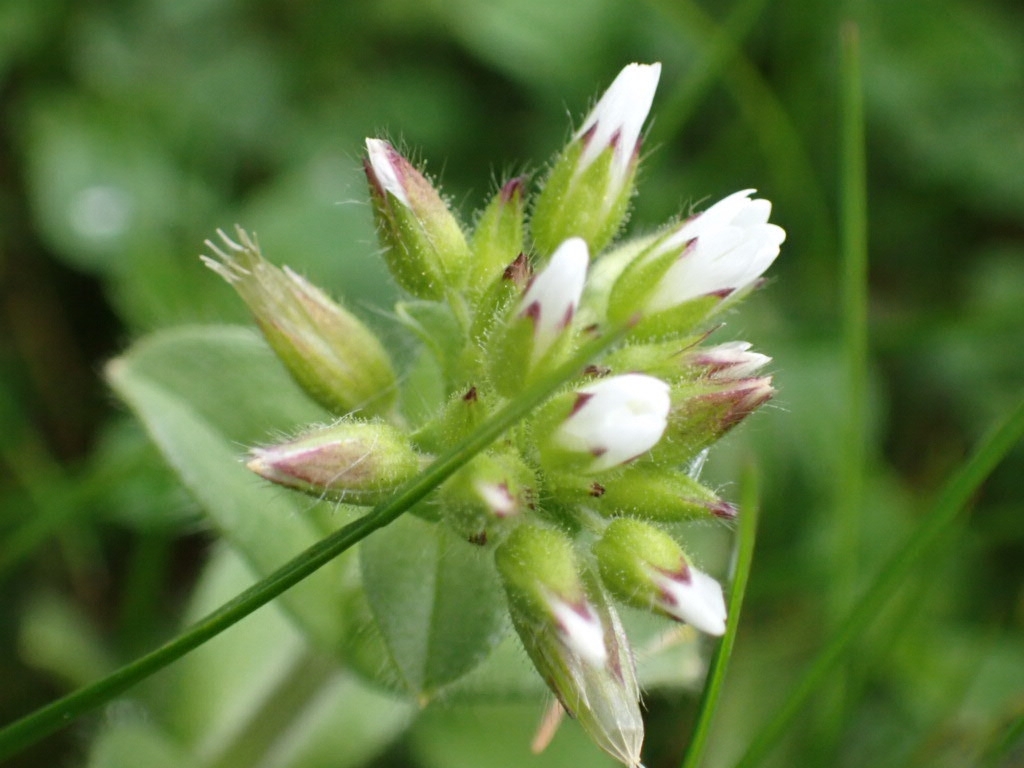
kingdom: Plantae
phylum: Tracheophyta
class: Magnoliopsida
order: Caryophyllales
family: Caryophyllaceae
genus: Cerastium
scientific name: Cerastium glomeratum
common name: Sticky chickweed
